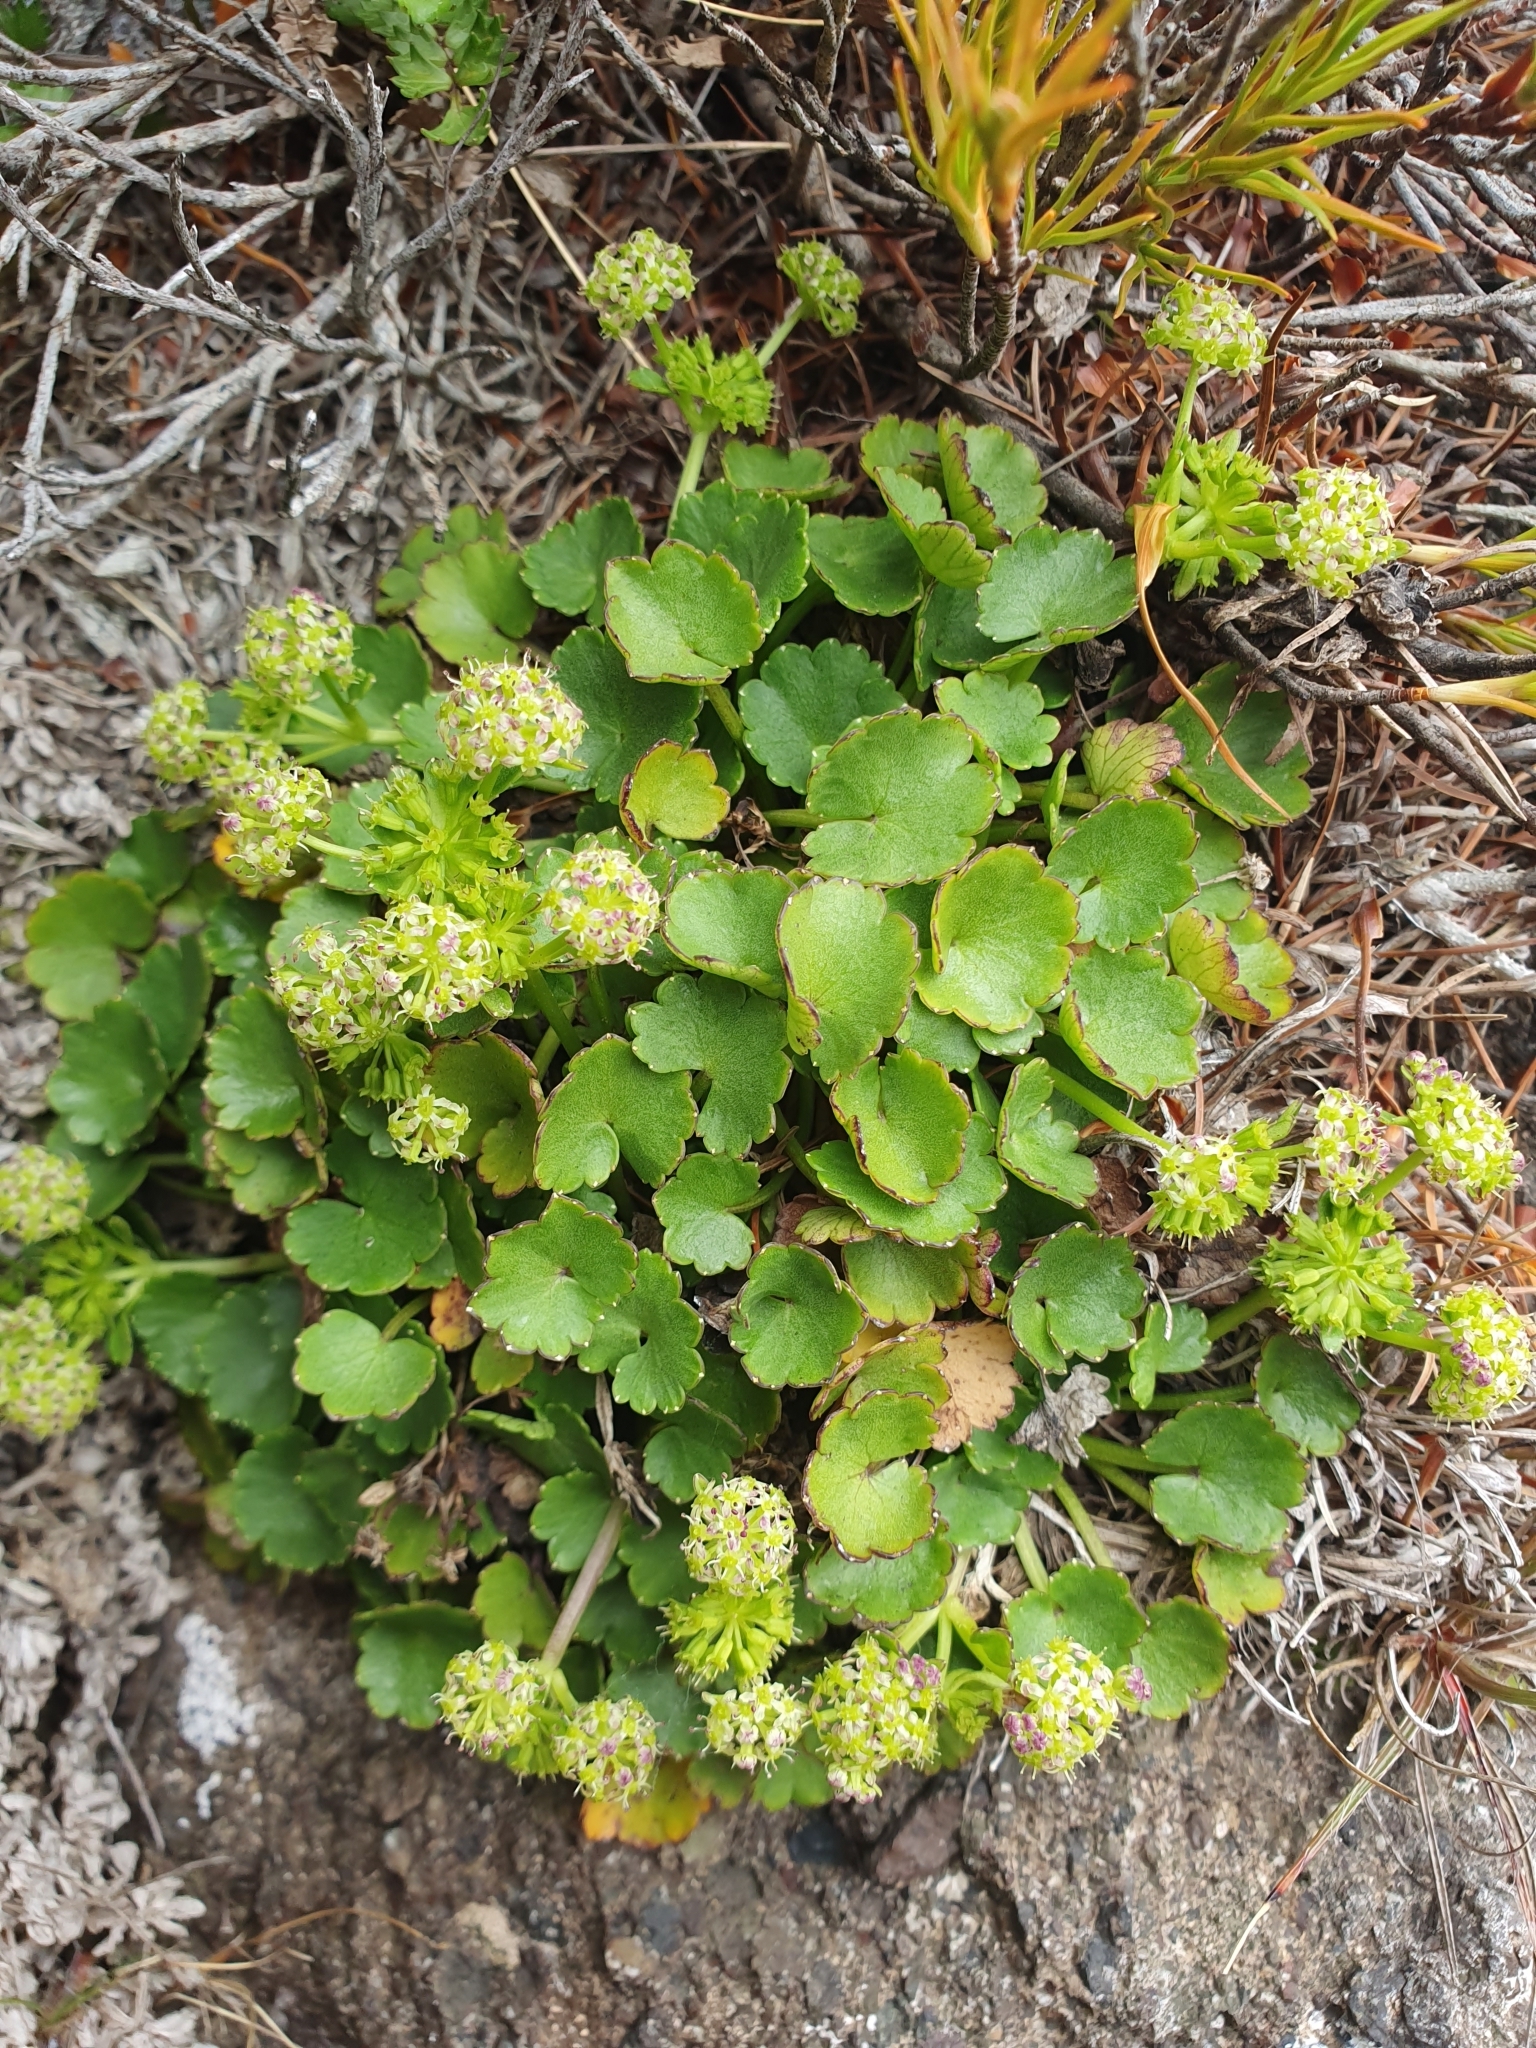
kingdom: Plantae
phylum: Tracheophyta
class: Magnoliopsida
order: Apiales
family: Apiaceae
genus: Azorella
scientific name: Azorella haastii
